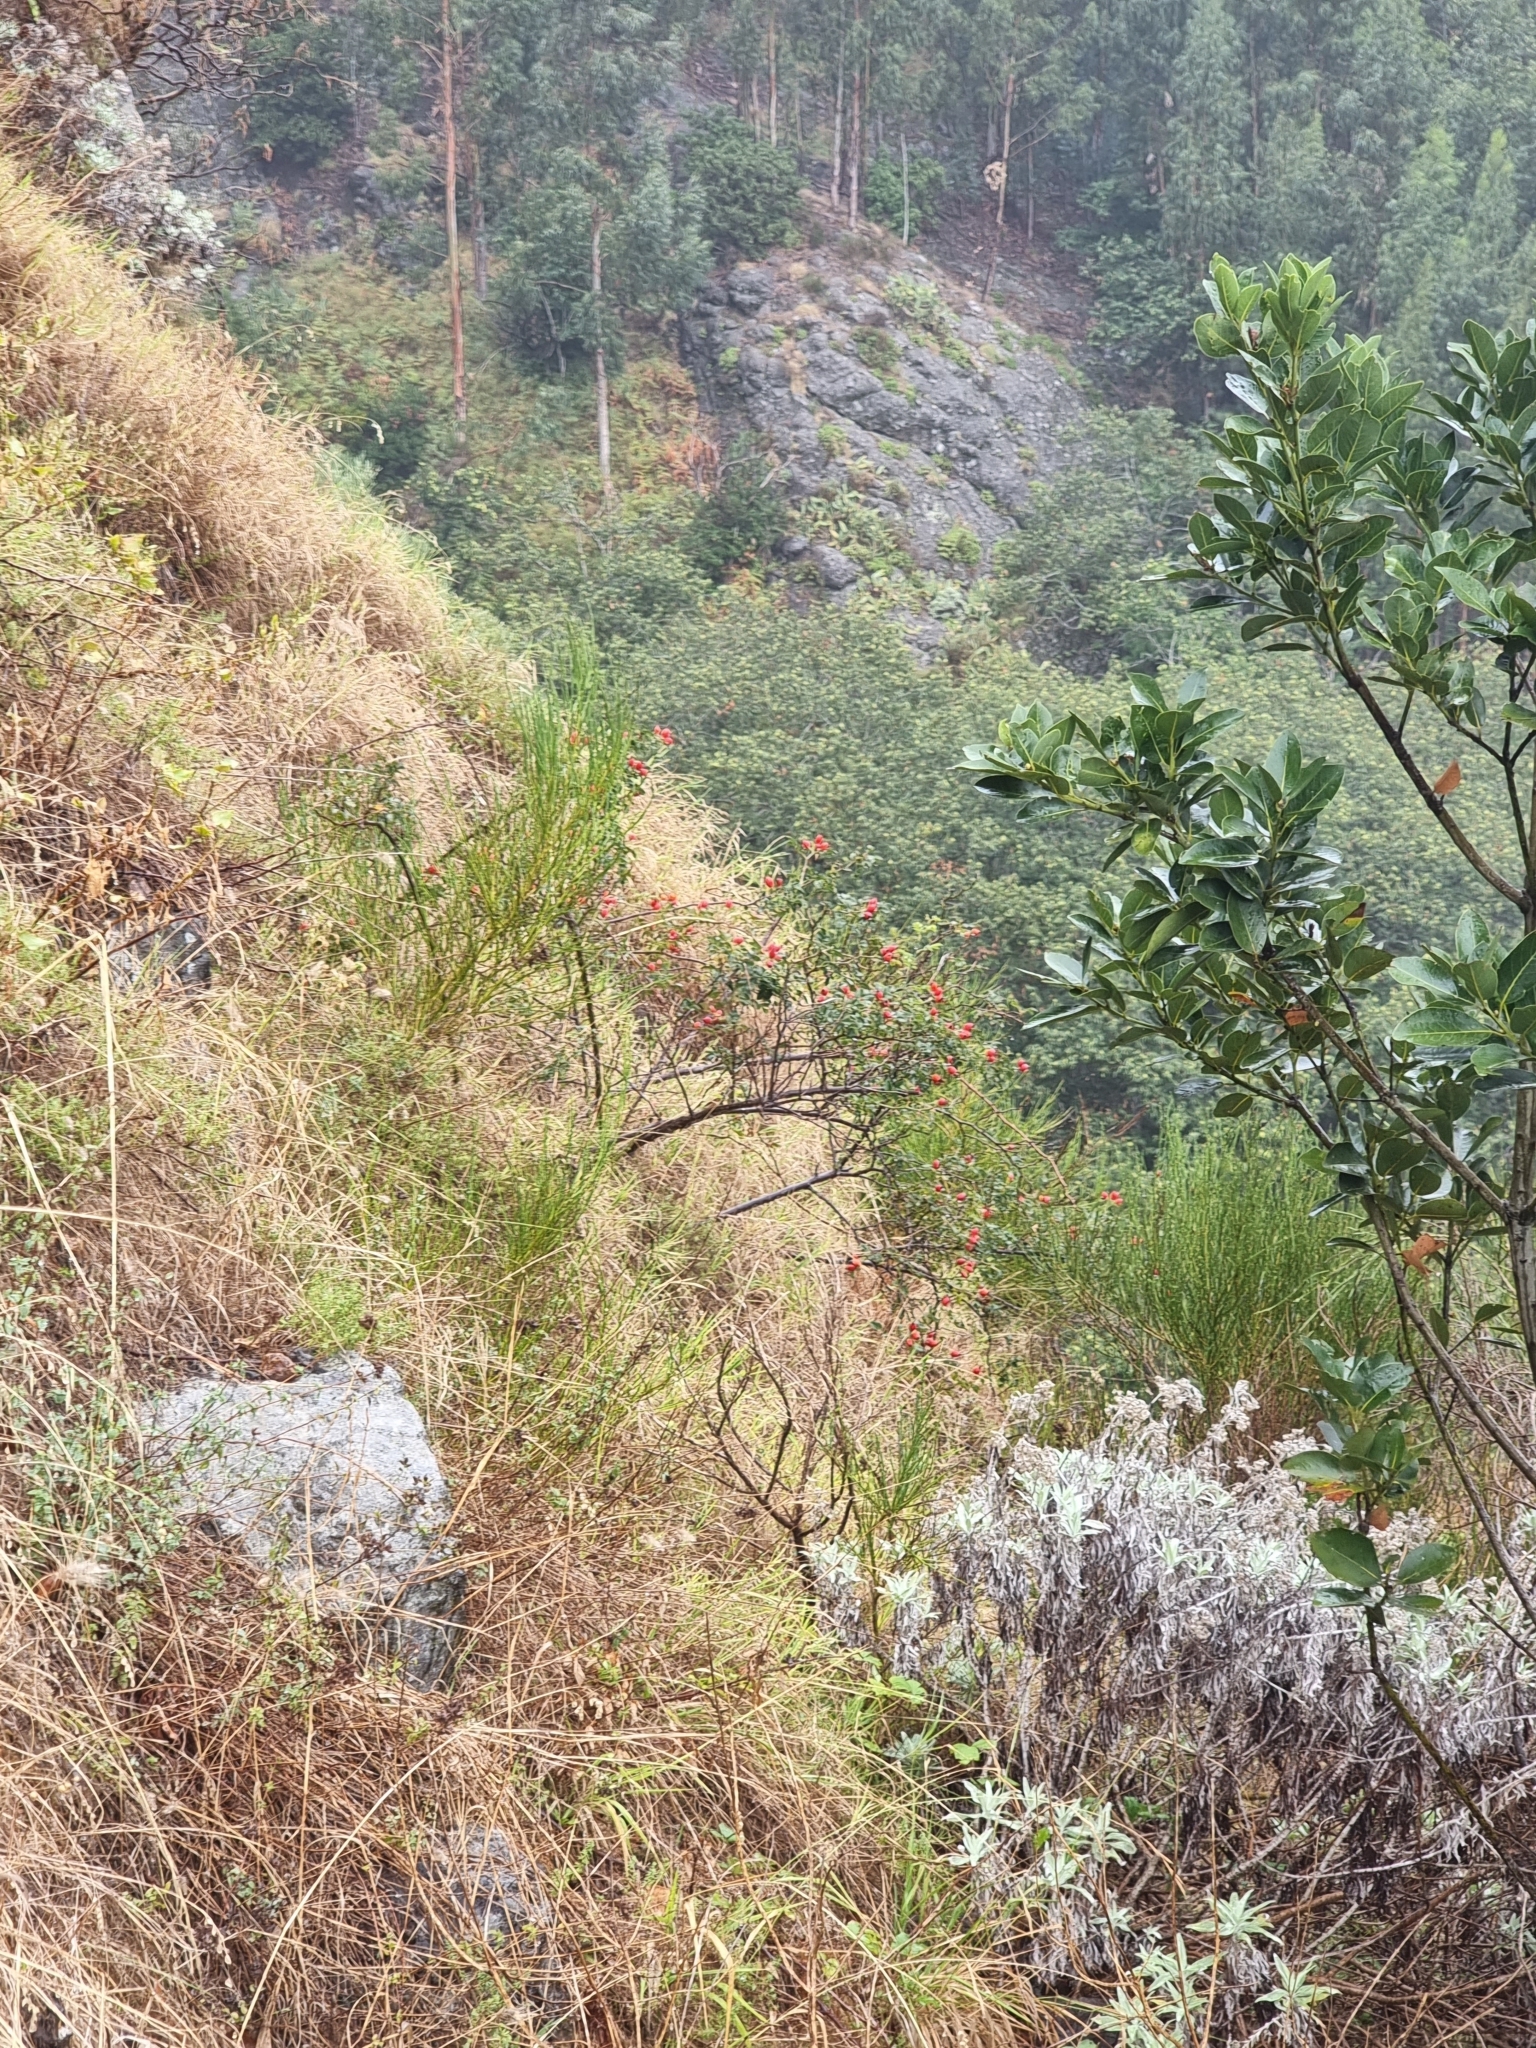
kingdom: Plantae
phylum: Tracheophyta
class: Magnoliopsida
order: Rosales
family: Rosaceae
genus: Rosa
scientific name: Rosa canina
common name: Dog rose
